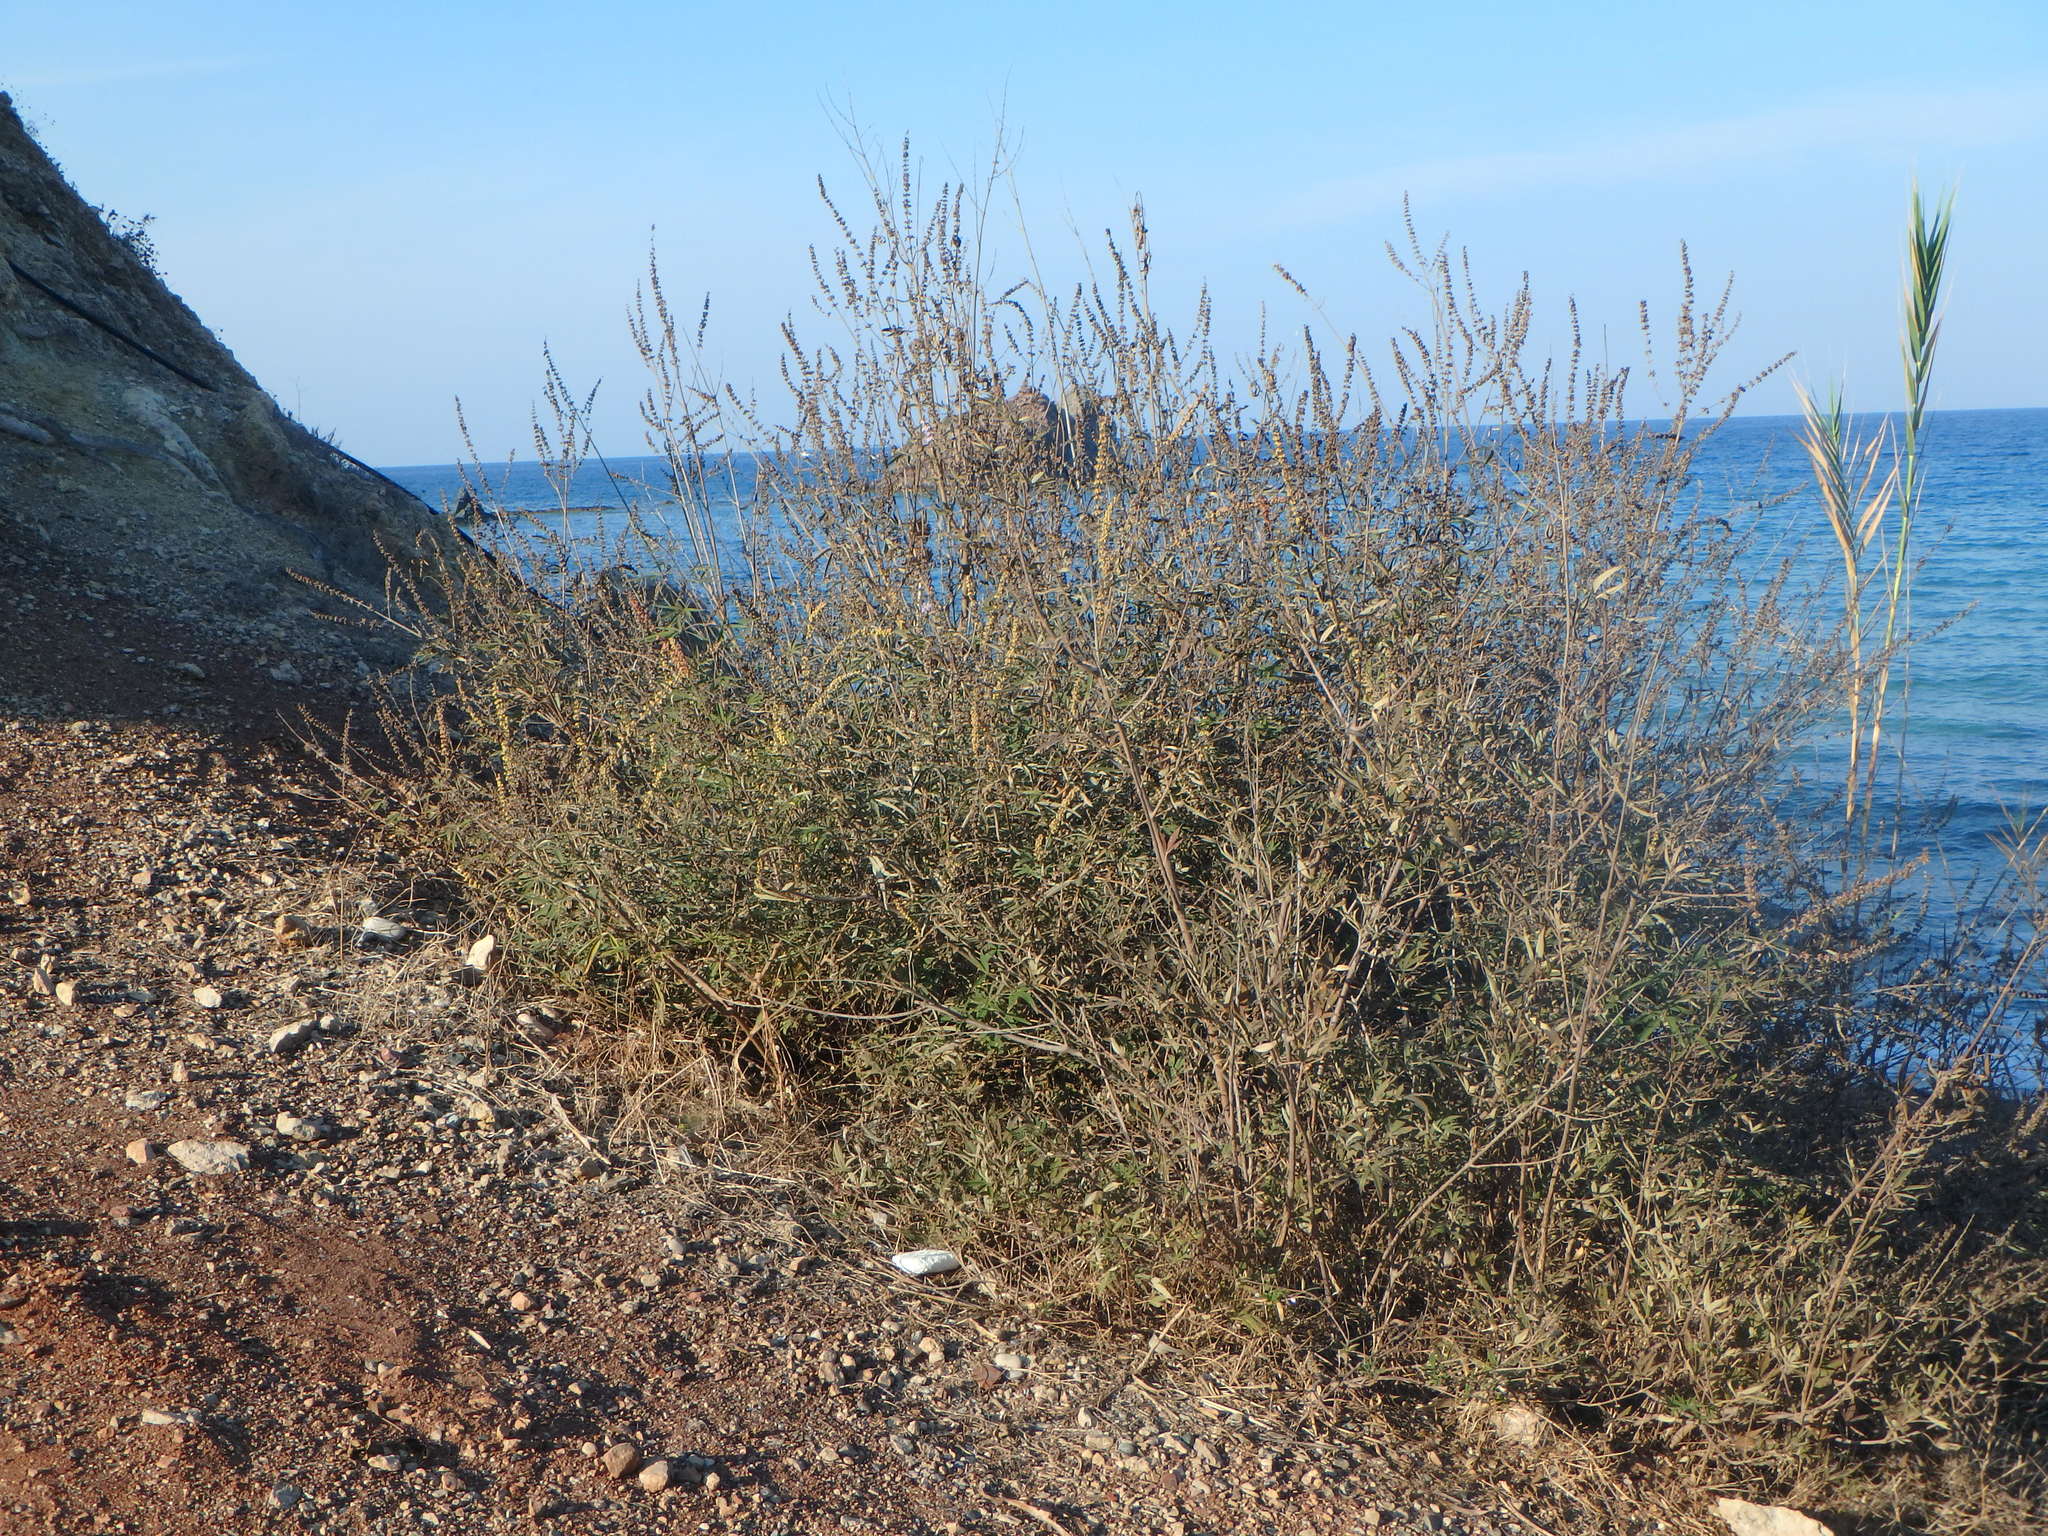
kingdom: Plantae
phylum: Tracheophyta
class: Magnoliopsida
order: Lamiales
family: Lamiaceae
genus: Vitex
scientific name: Vitex agnus-castus
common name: Chasteberry
